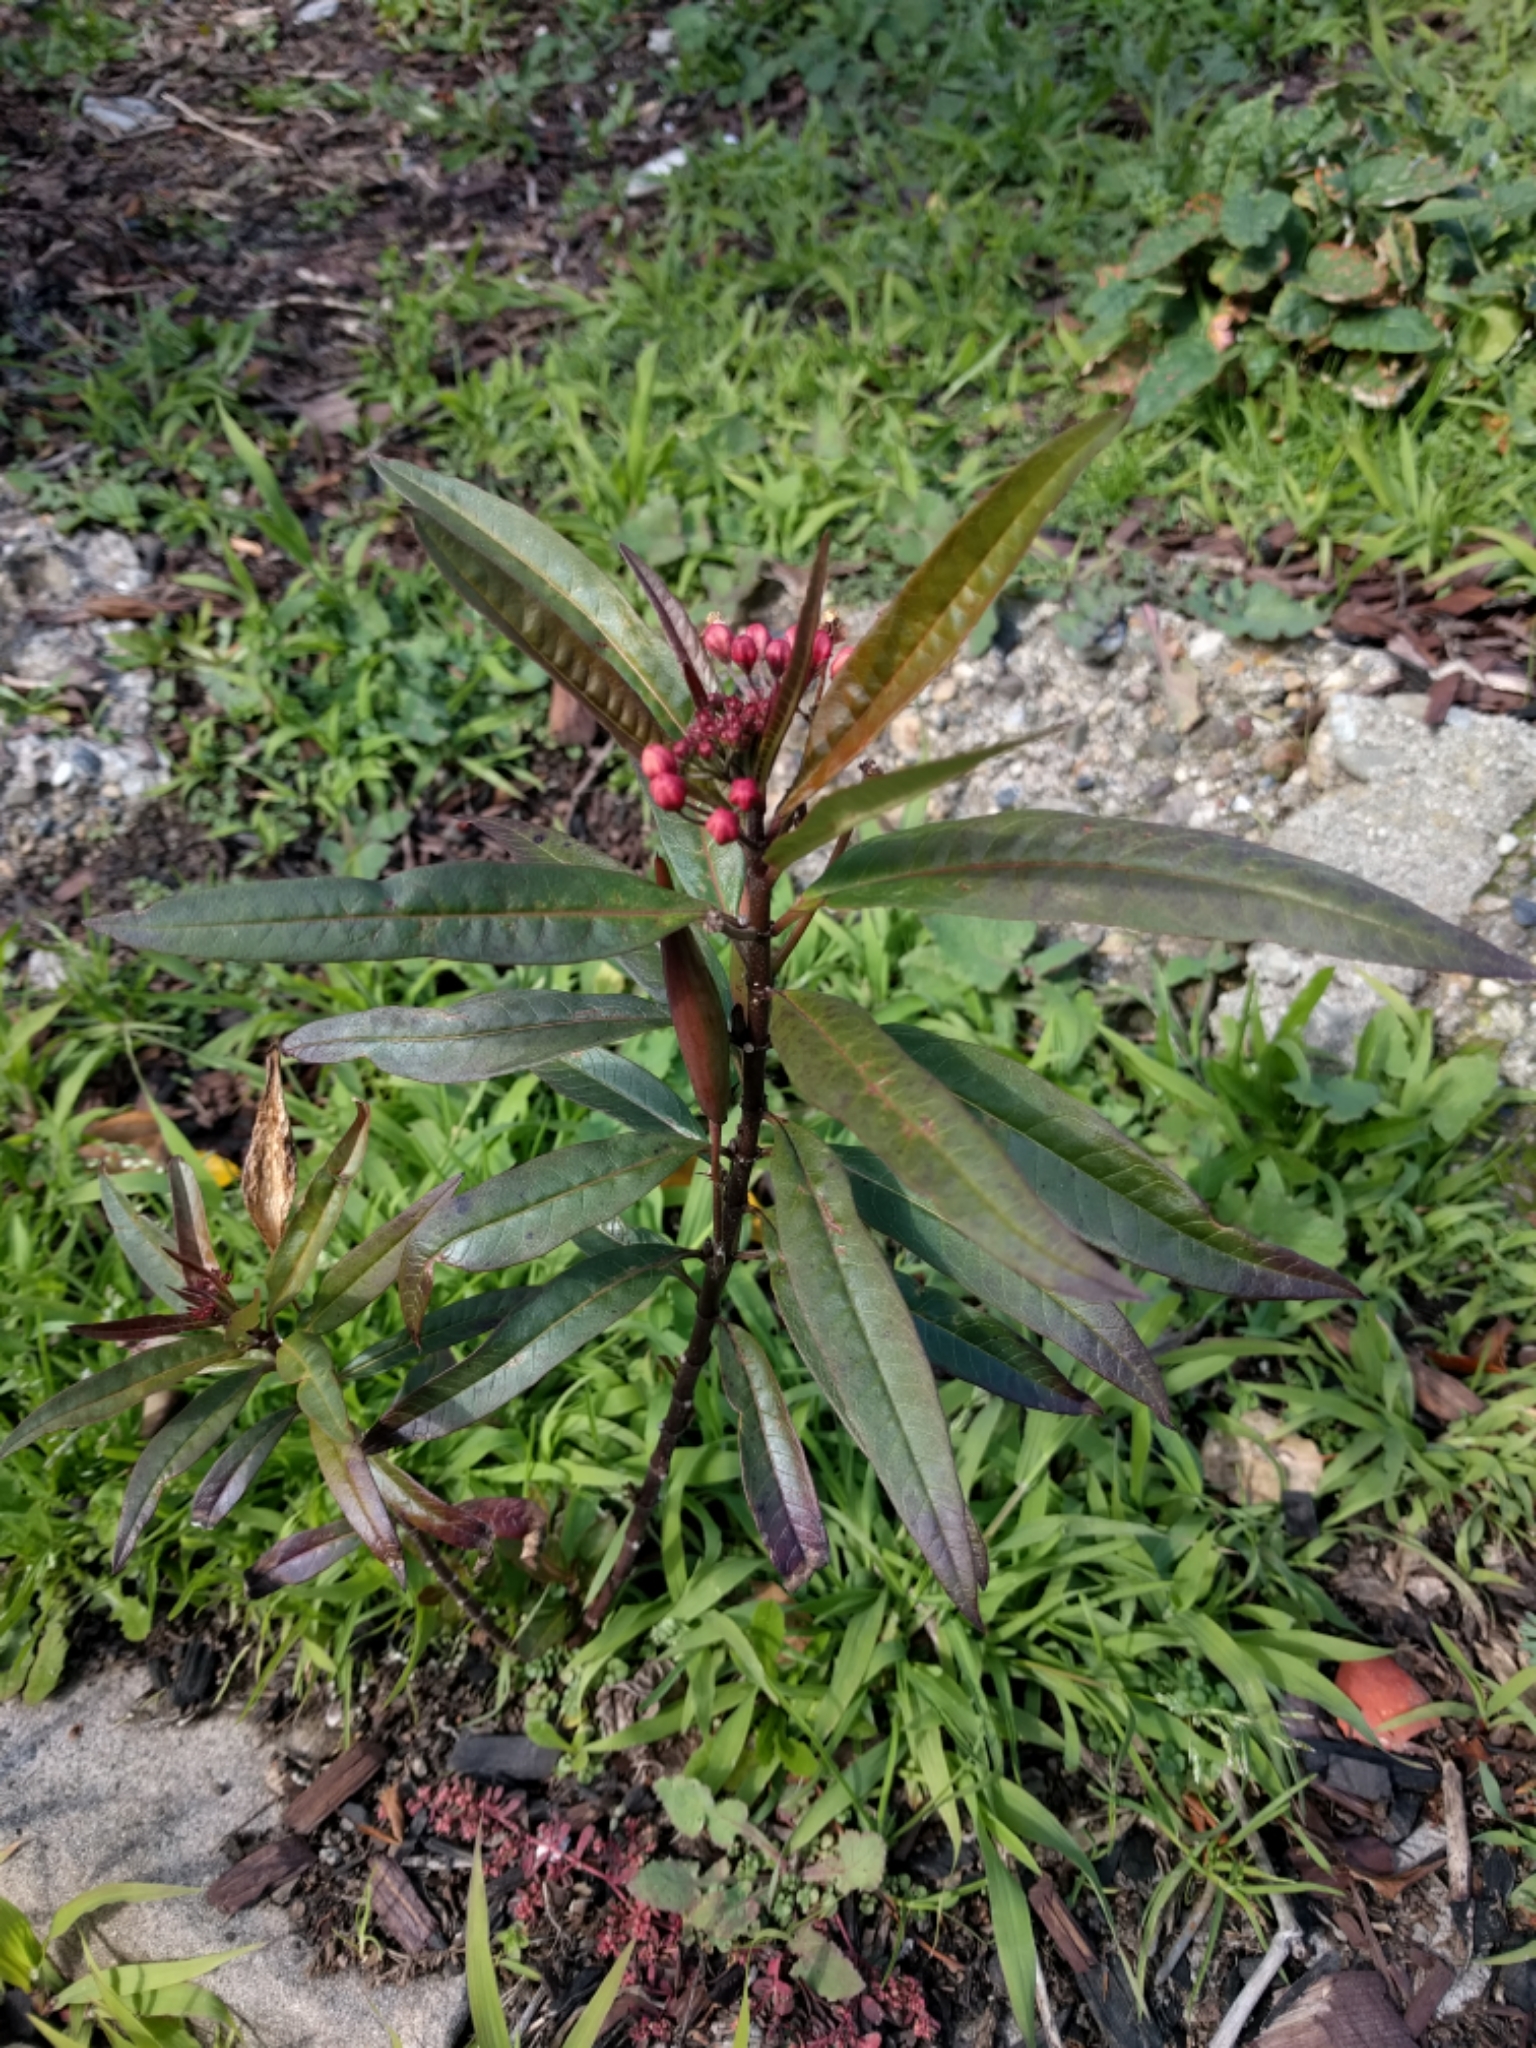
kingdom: Plantae
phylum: Tracheophyta
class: Magnoliopsida
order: Gentianales
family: Apocynaceae
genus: Asclepias
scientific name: Asclepias curassavica
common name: Bloodflower
